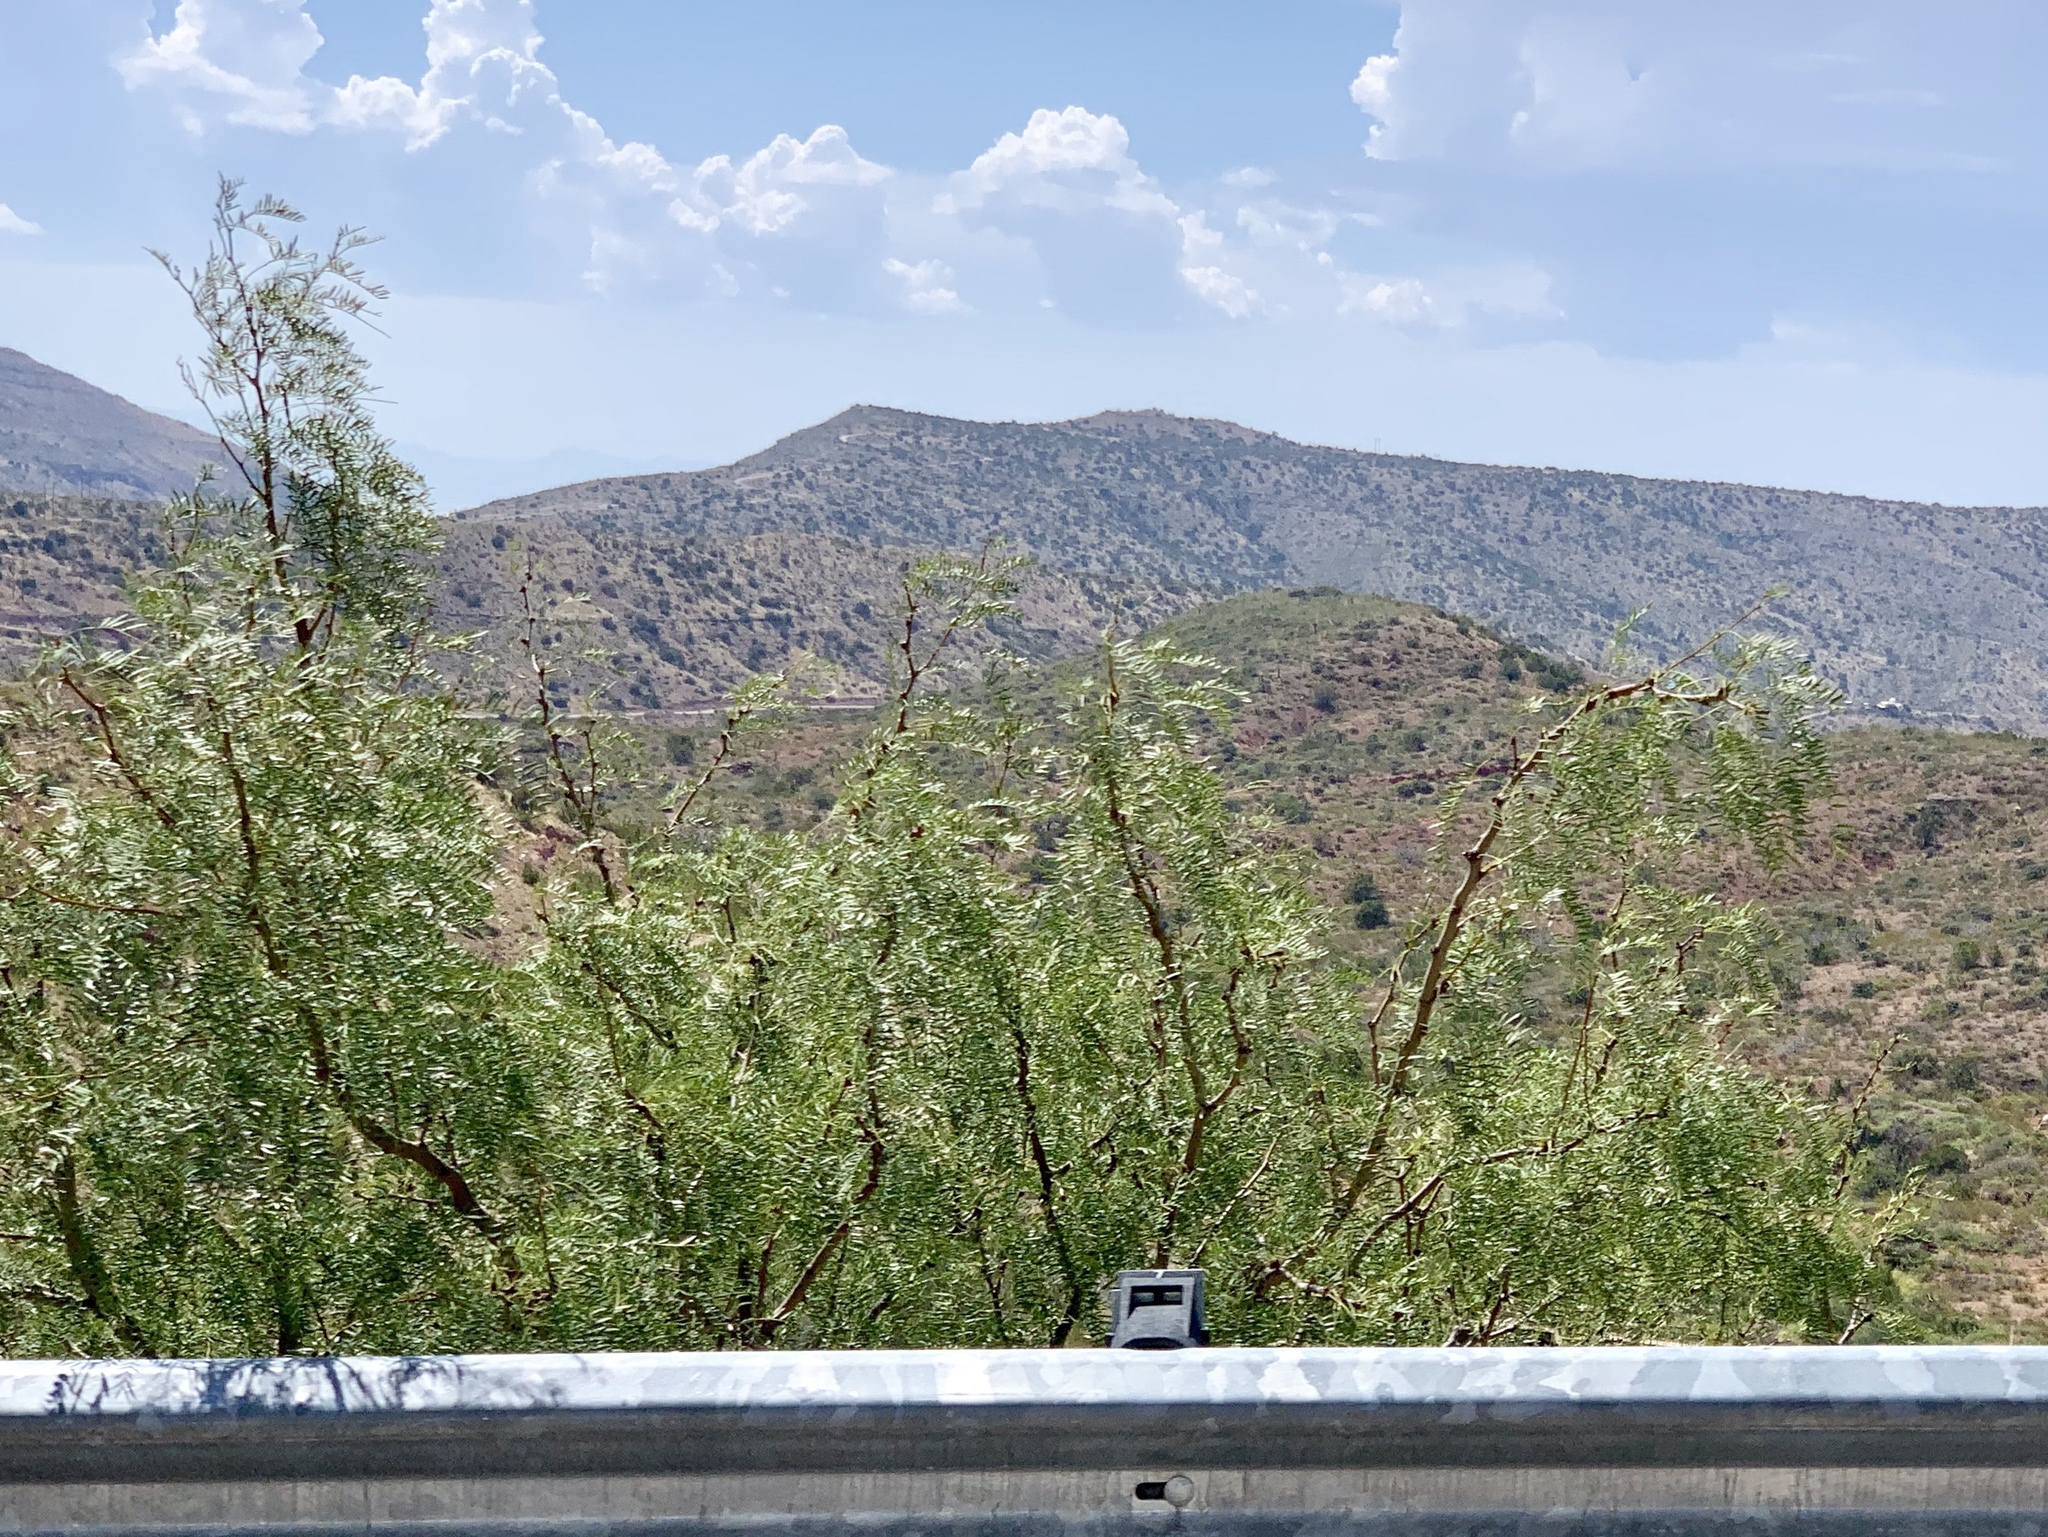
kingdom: Plantae
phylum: Tracheophyta
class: Magnoliopsida
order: Fabales
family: Fabaceae
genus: Prosopis
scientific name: Prosopis glandulosa
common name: Honey mesquite
